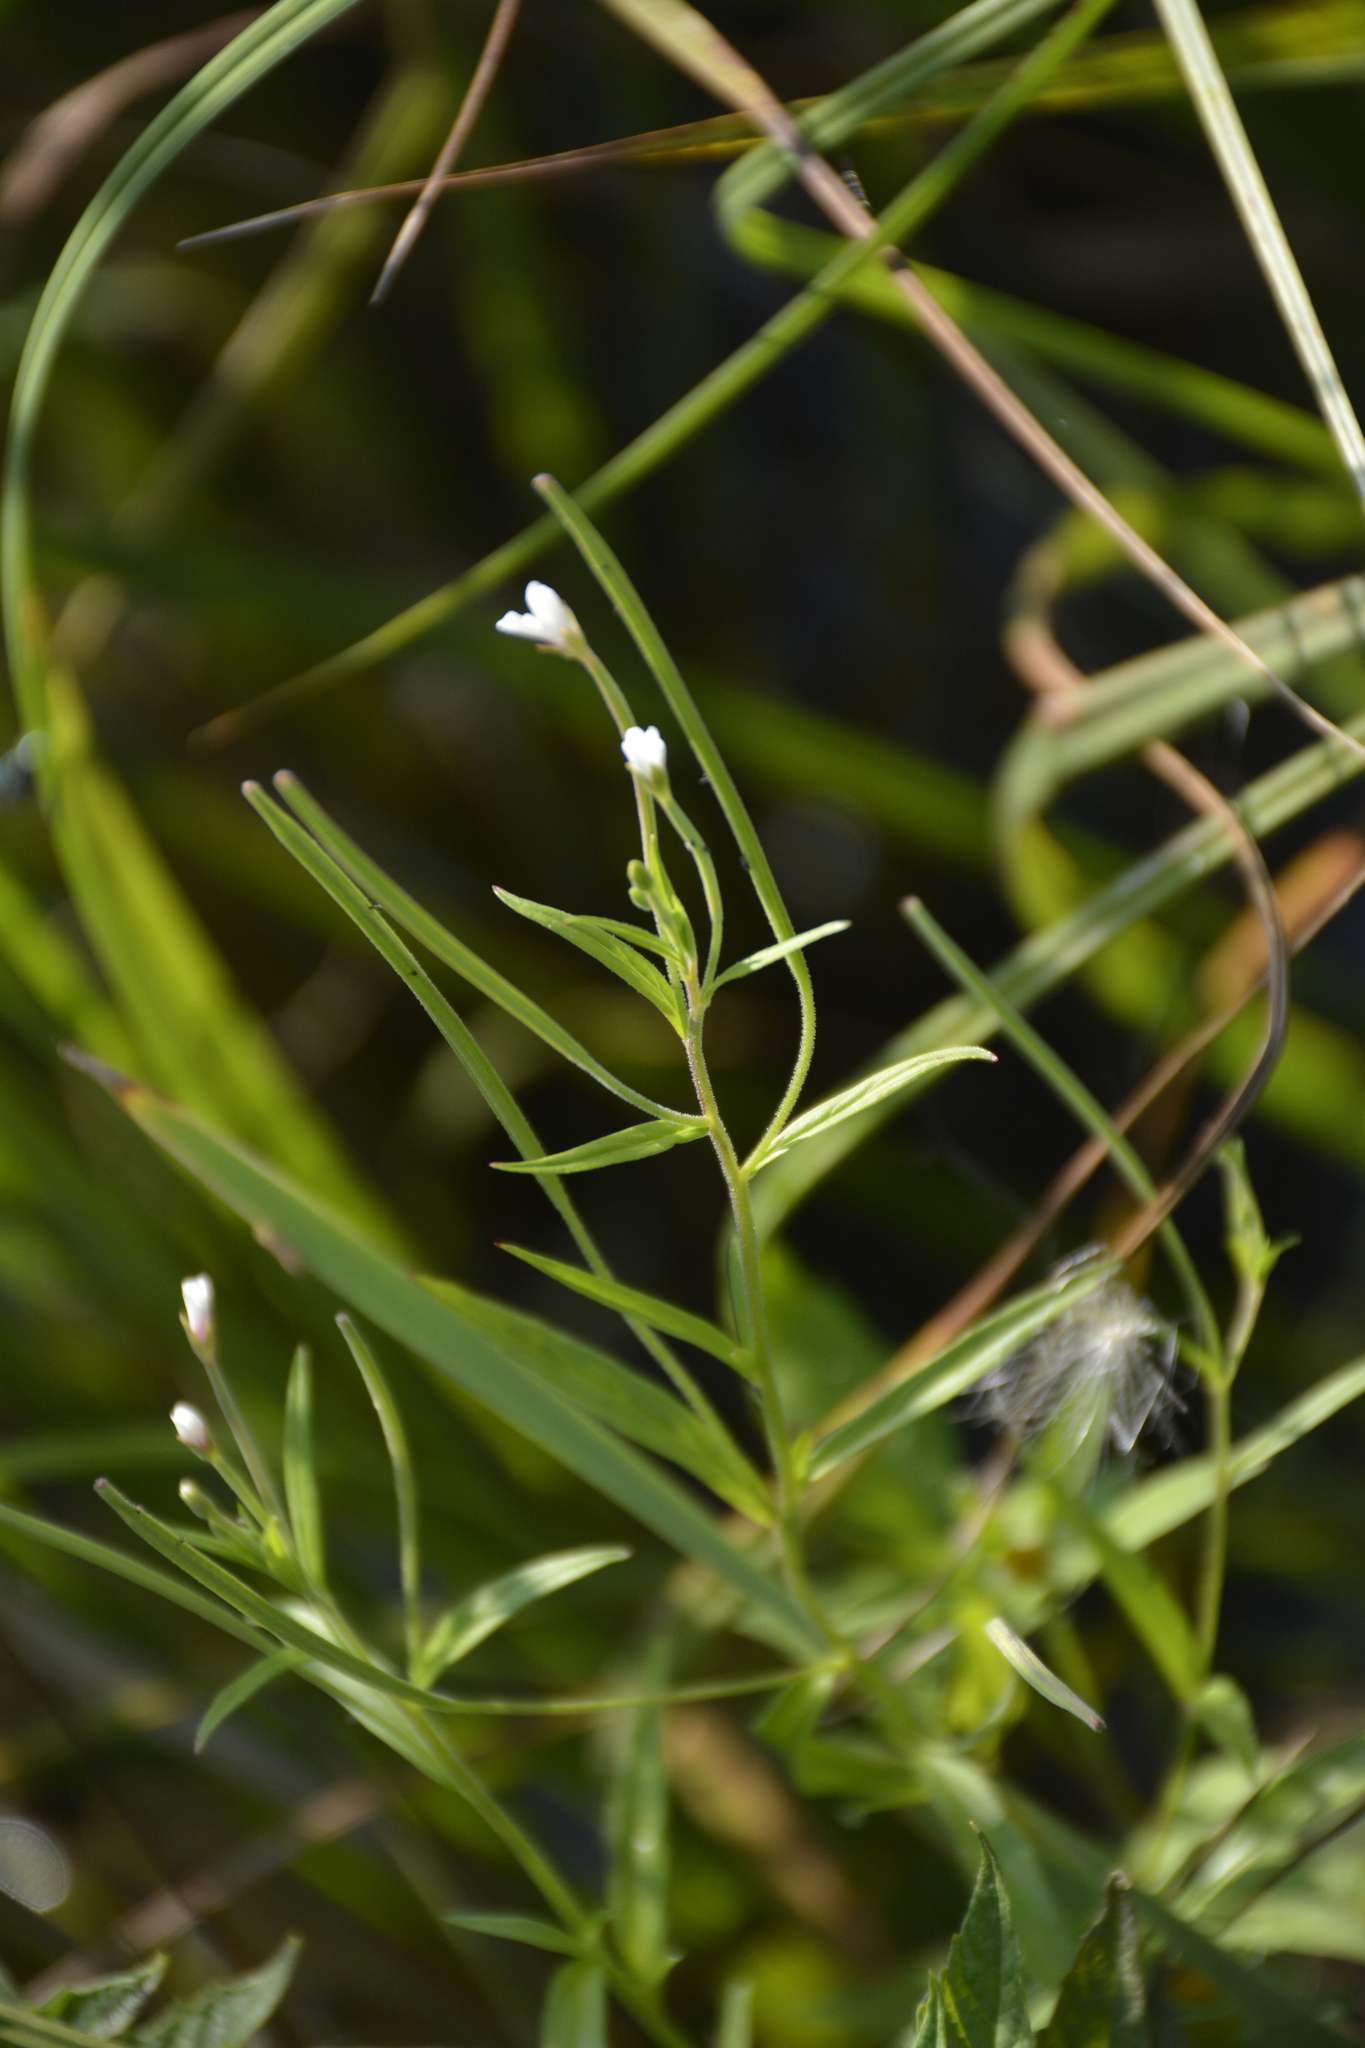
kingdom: Plantae
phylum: Tracheophyta
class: Magnoliopsida
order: Myrtales
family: Onagraceae
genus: Epilobium
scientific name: Epilobium palustre
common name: Marsh willowherb
